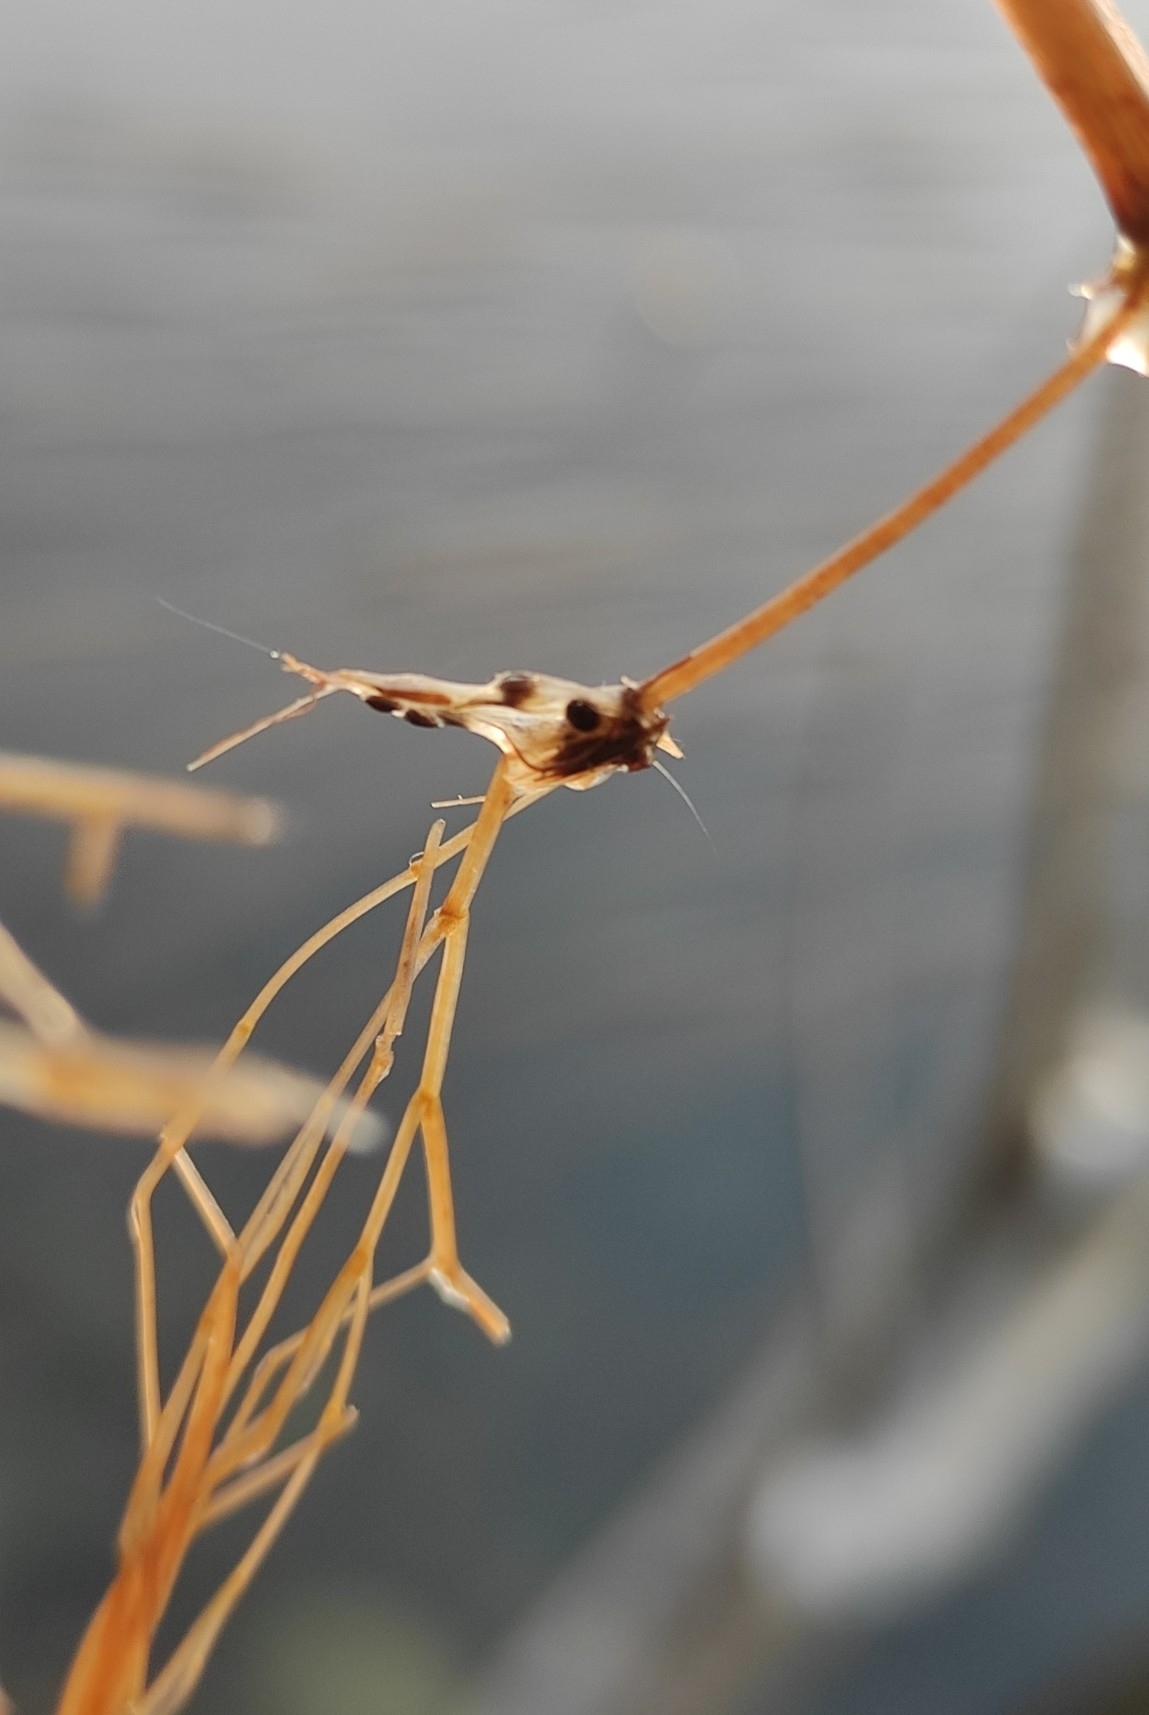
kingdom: Plantae
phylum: Tracheophyta
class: Liliopsida
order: Alismatales
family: Potamogetonaceae
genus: Stuckenia
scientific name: Stuckenia pectinata
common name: Sago pondweed
